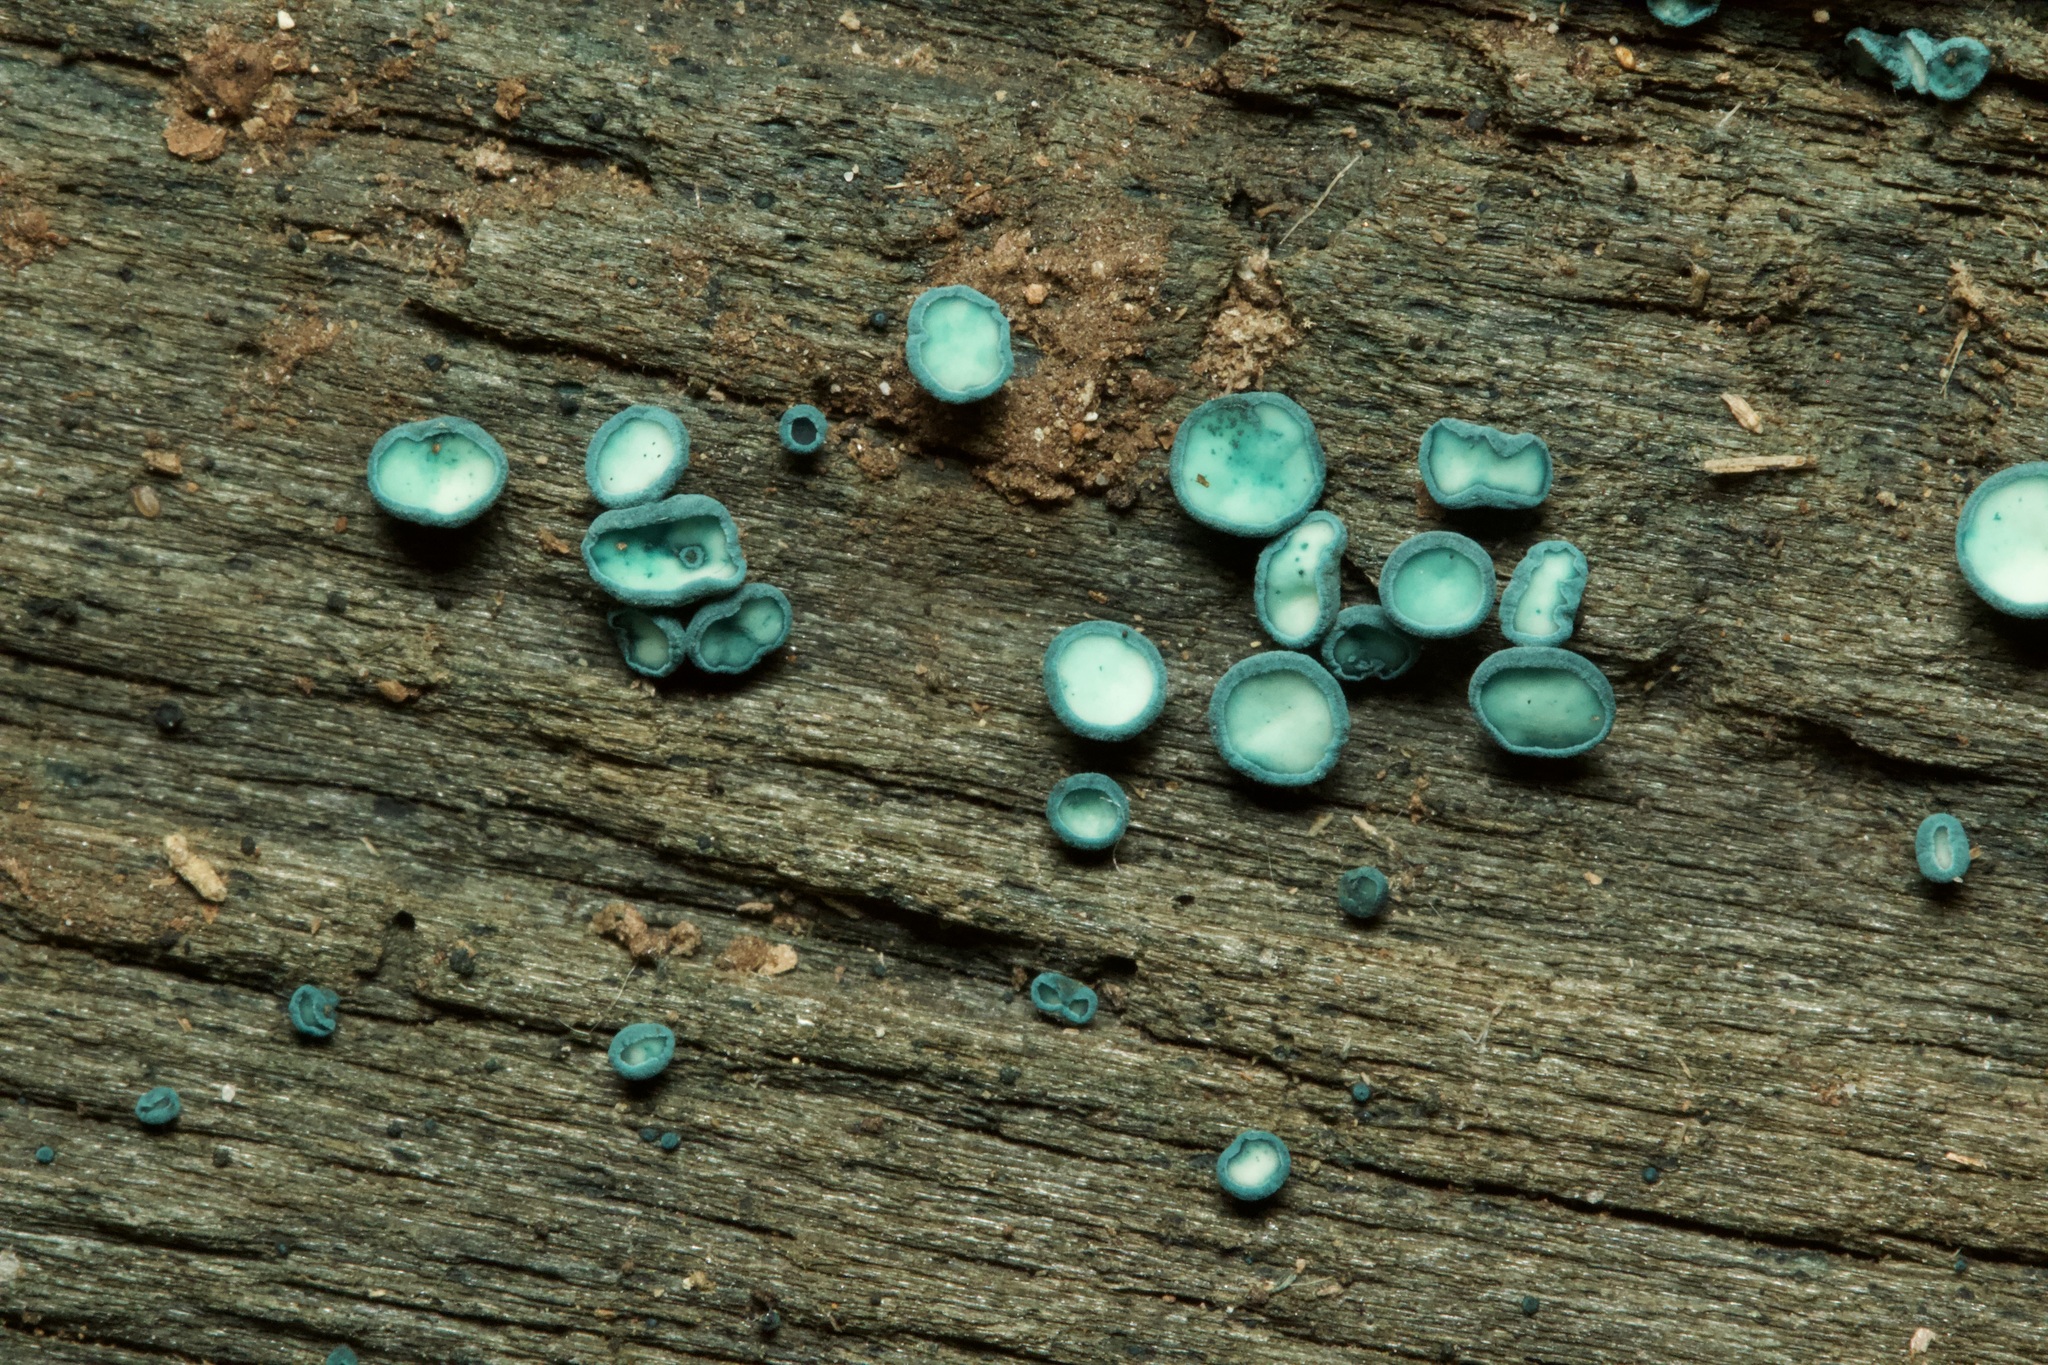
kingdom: Fungi
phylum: Ascomycota
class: Leotiomycetes
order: Helotiales
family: Chlorociboriaceae
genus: Chlorociboria
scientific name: Chlorociboria aeruginosa
